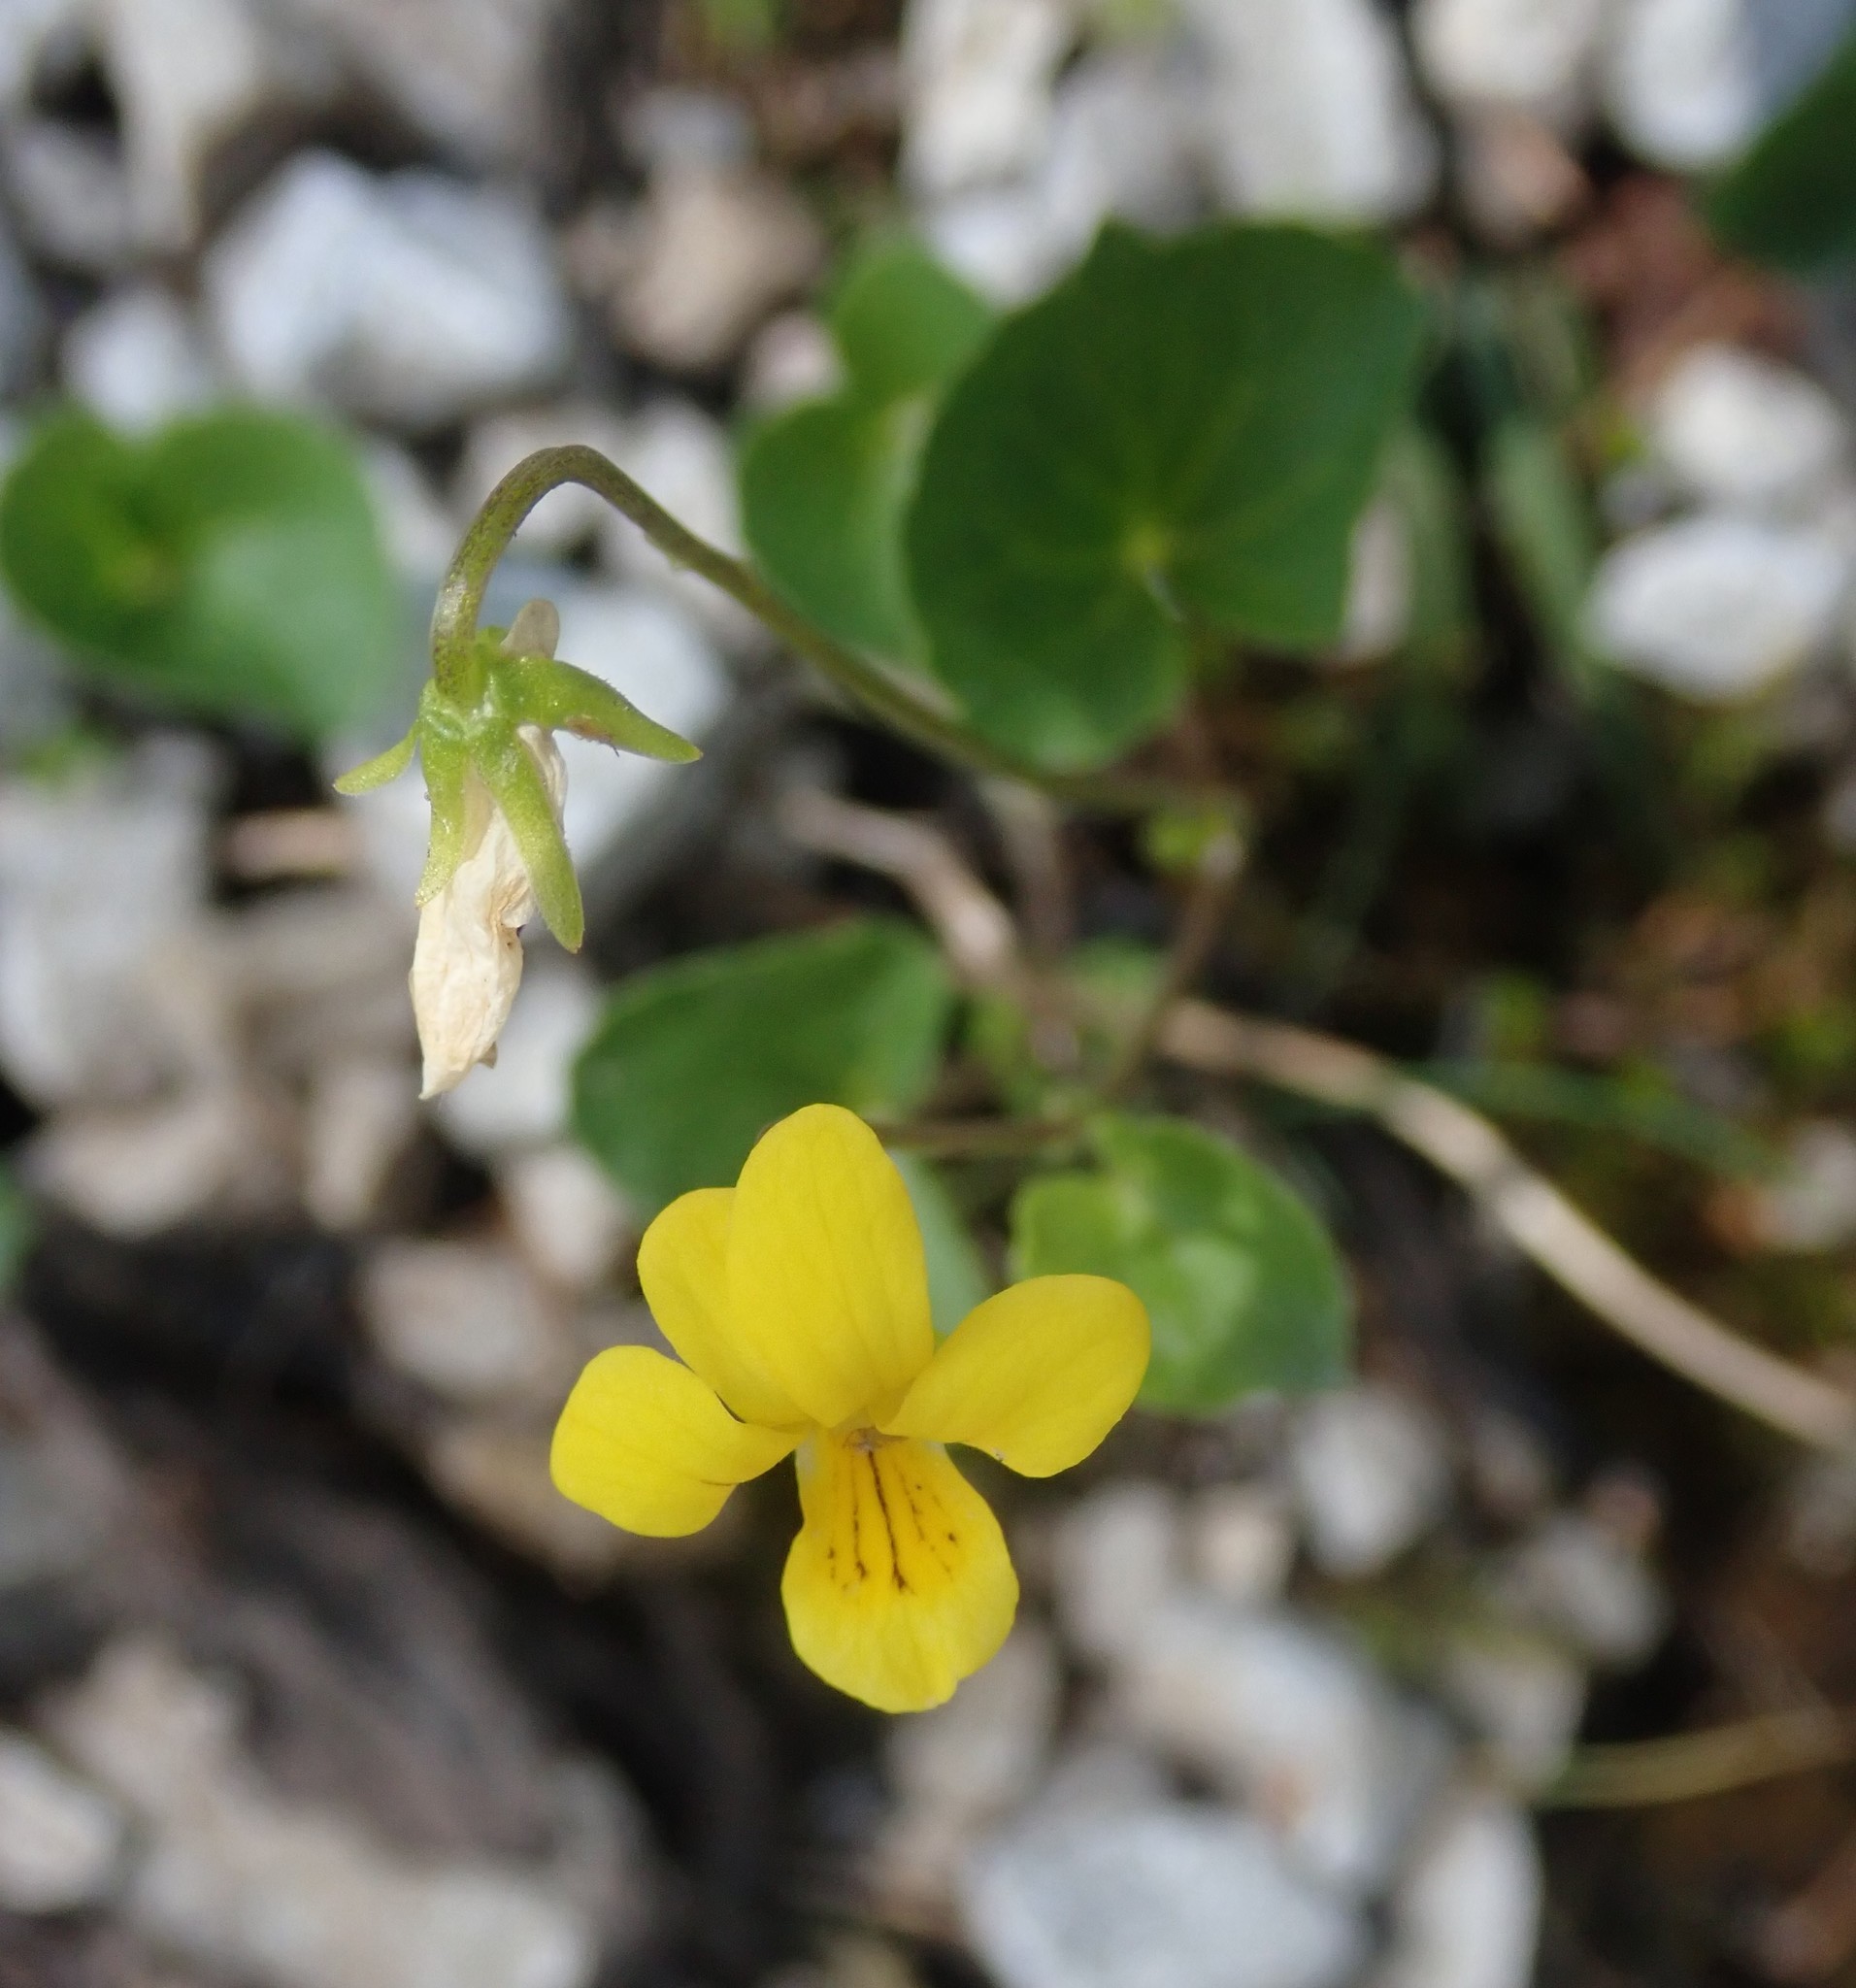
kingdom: Plantae
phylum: Tracheophyta
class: Magnoliopsida
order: Malpighiales
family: Violaceae
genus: Viola
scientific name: Viola biflora
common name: Alpine yellow violet
